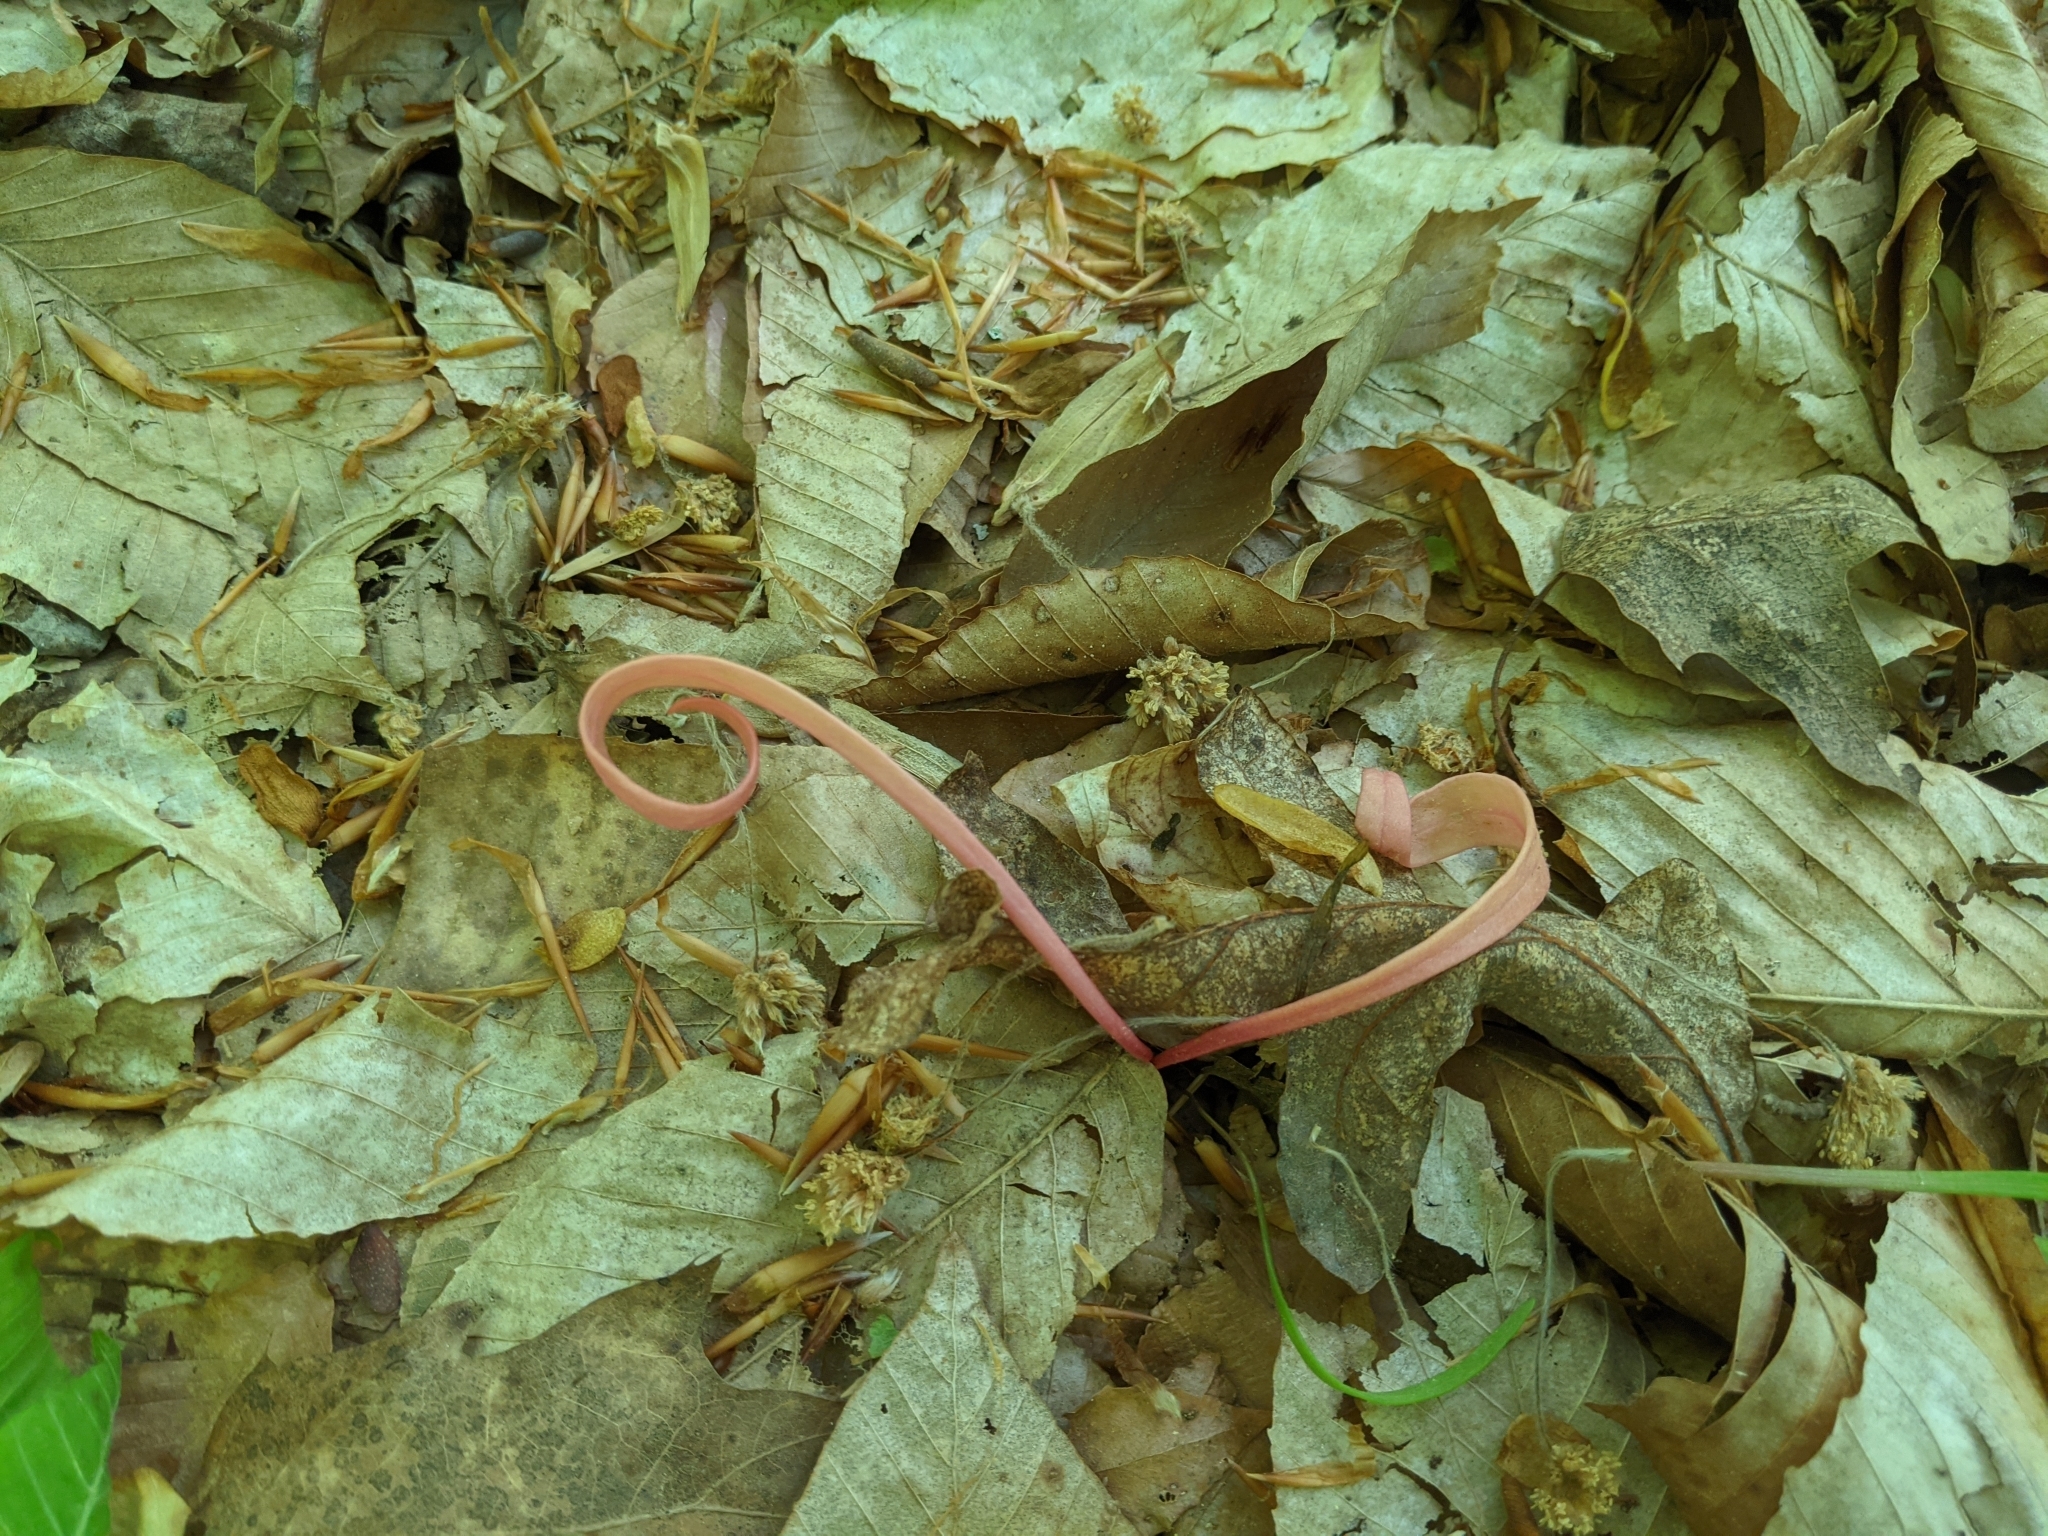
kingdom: Plantae
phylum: Tracheophyta
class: Magnoliopsida
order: Caryophyllales
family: Montiaceae
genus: Claytonia
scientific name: Claytonia virginica
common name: Virginia springbeauty
